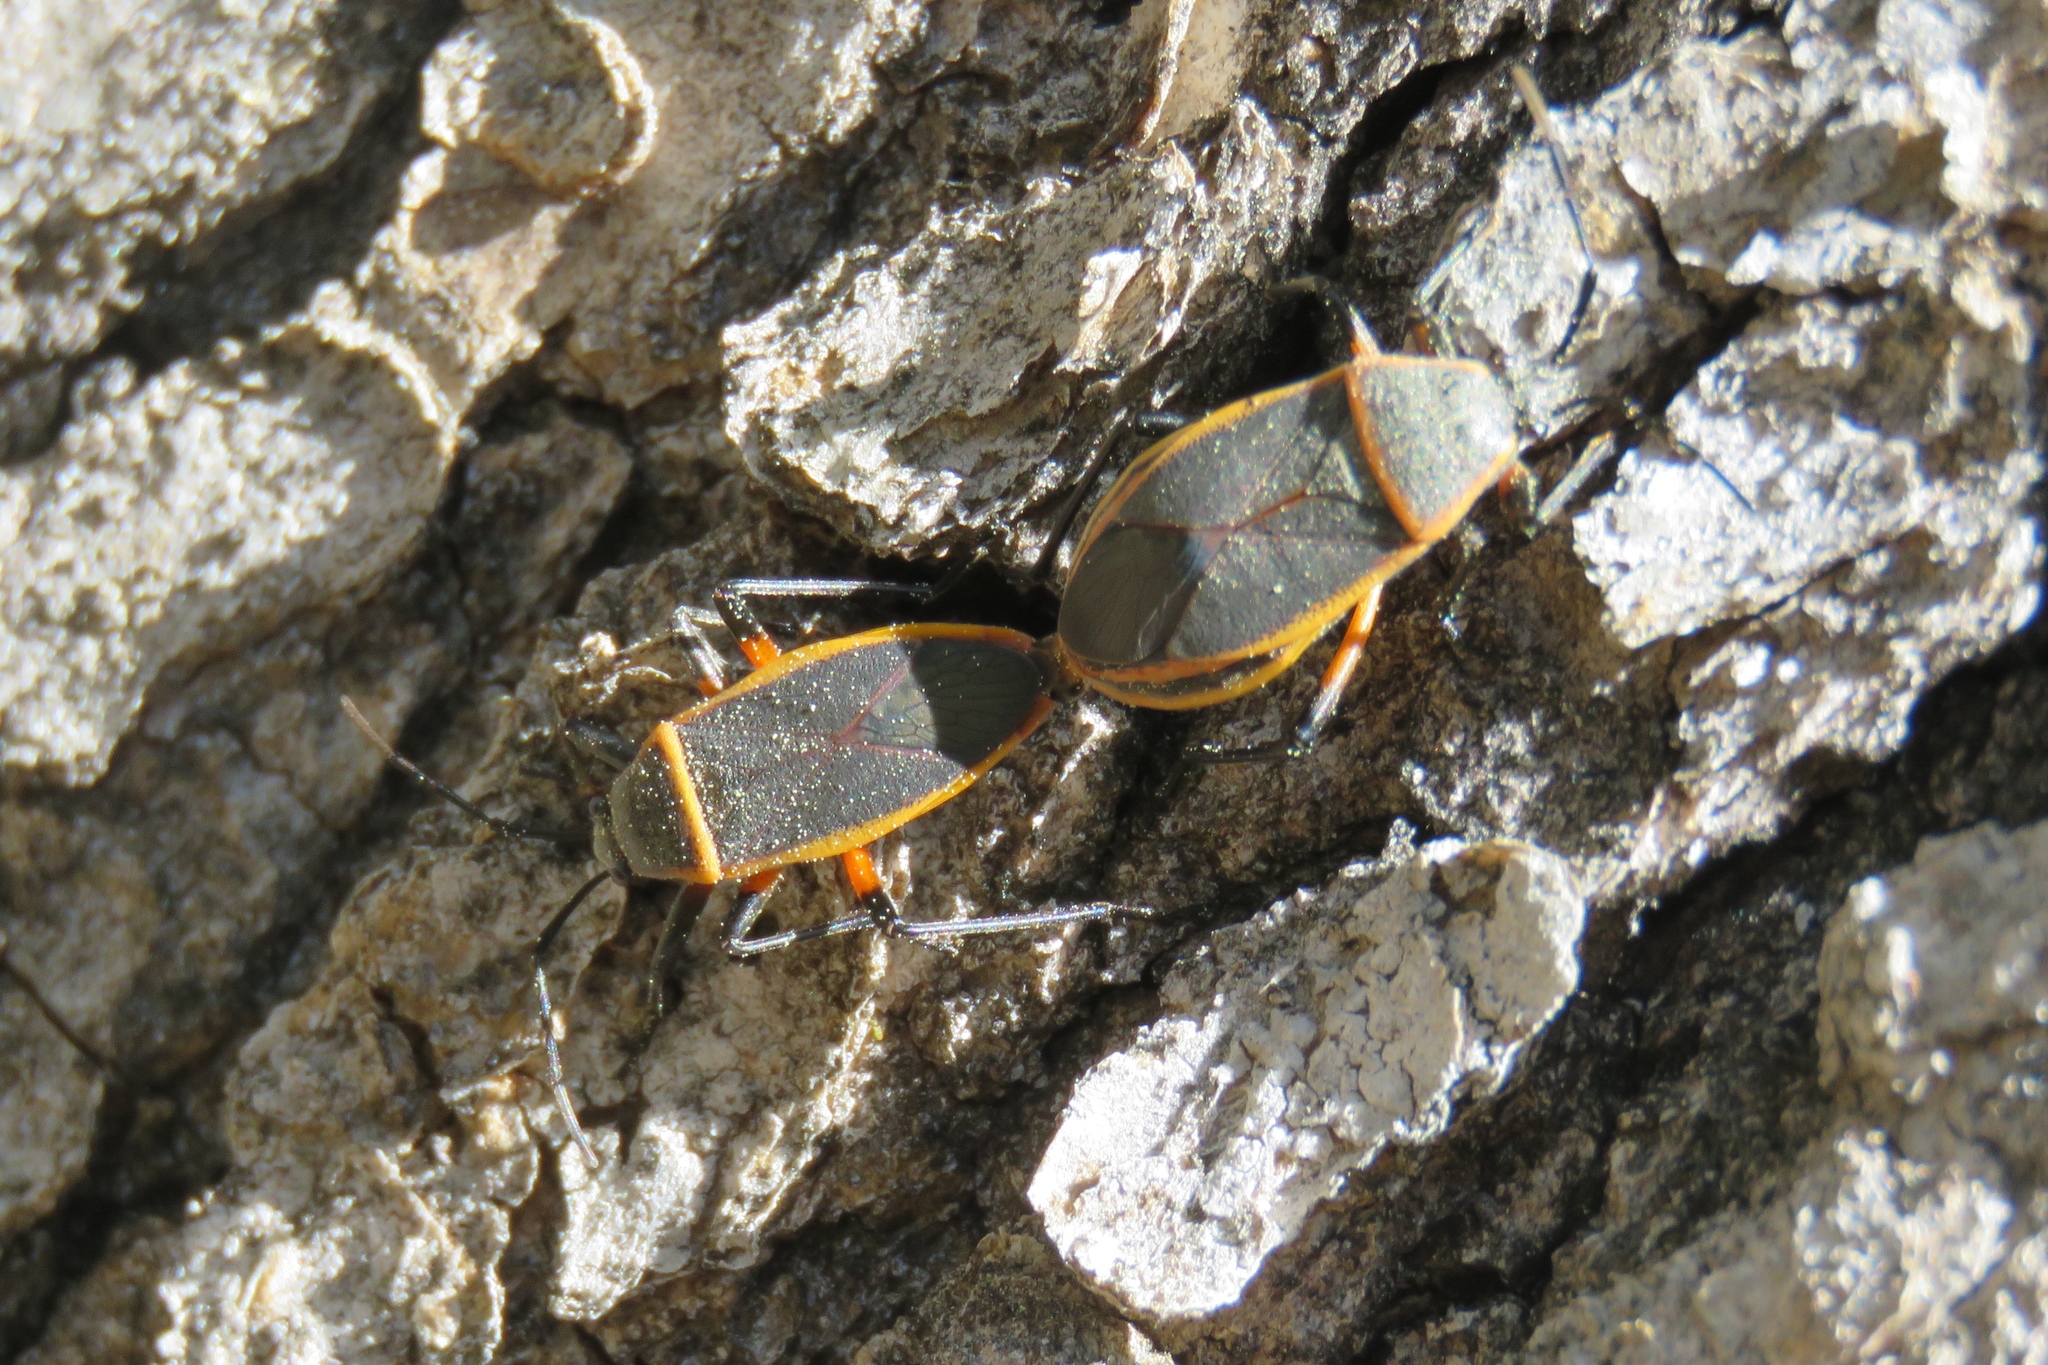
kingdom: Animalia
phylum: Arthropoda
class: Insecta
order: Hemiptera
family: Largidae
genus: Largus
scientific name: Largus succinctus
